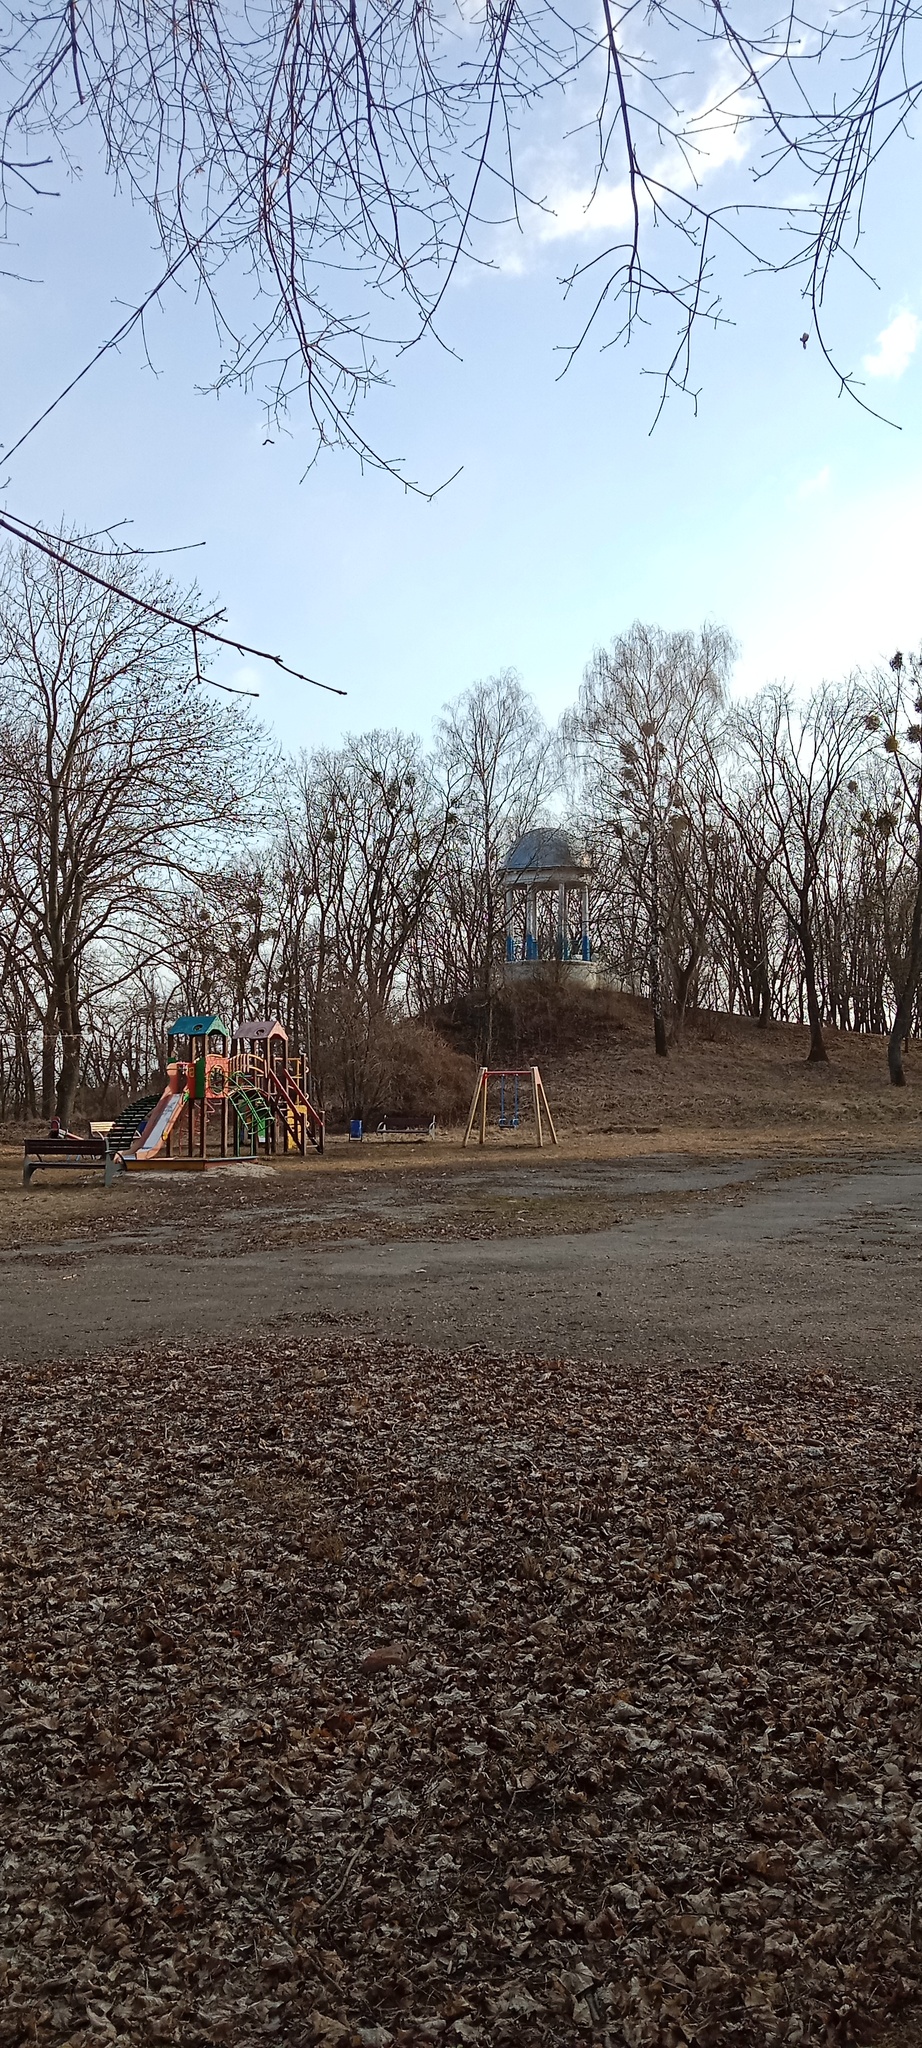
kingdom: Plantae
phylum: Tracheophyta
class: Magnoliopsida
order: Santalales
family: Viscaceae
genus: Viscum
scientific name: Viscum album
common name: Mistletoe
